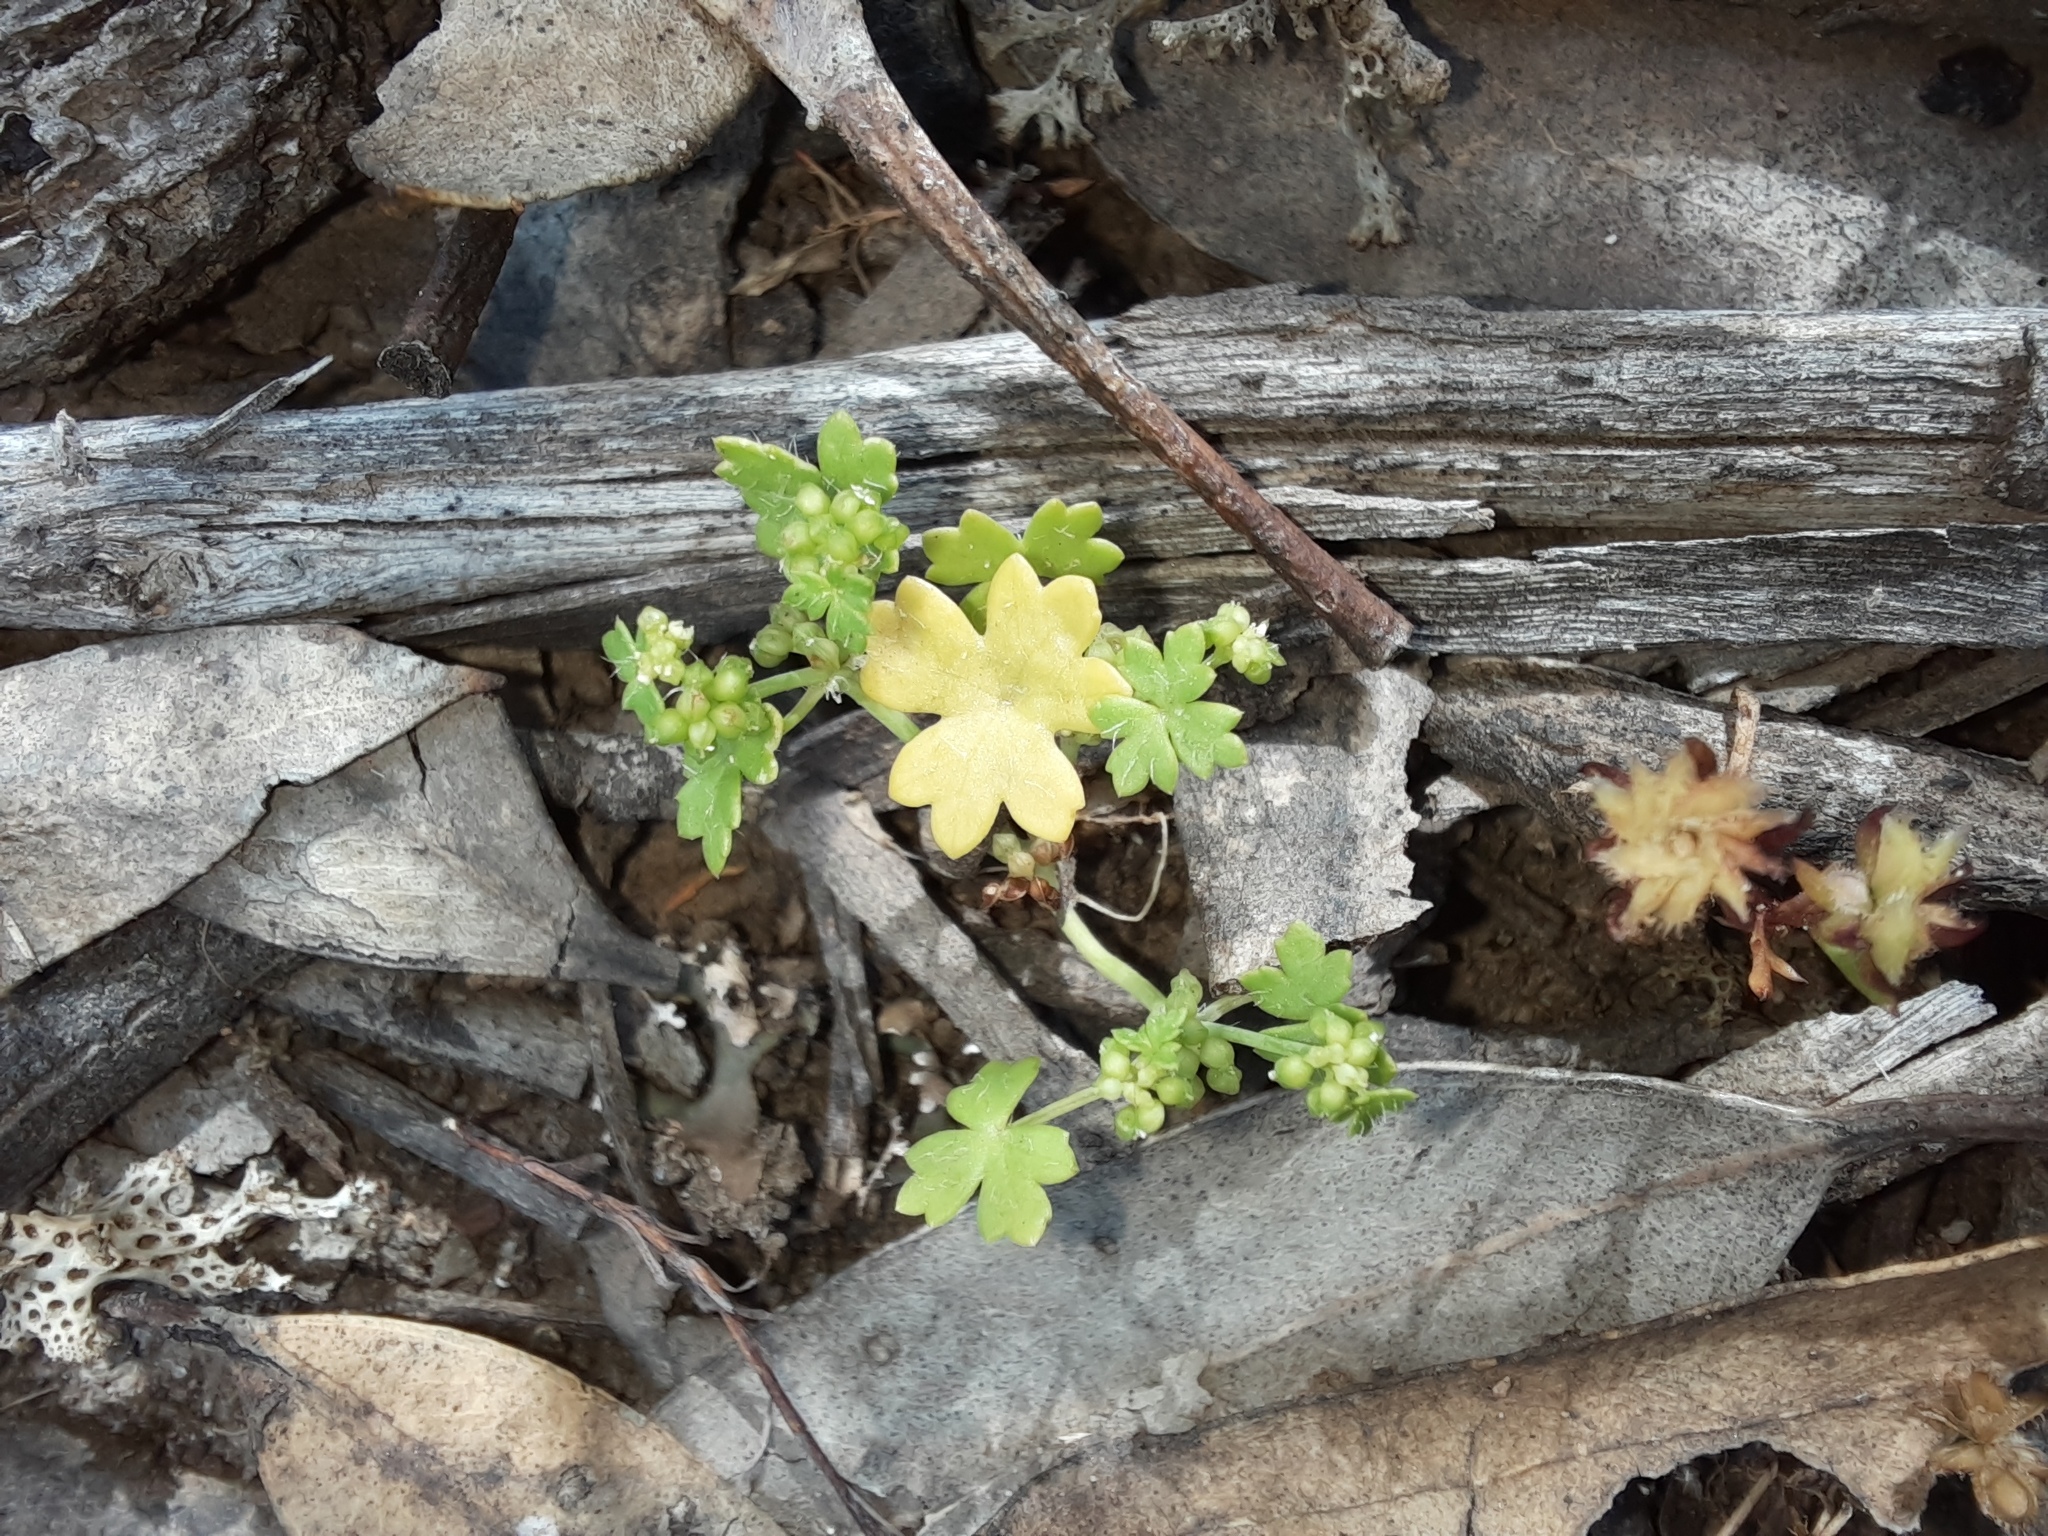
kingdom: Plantae
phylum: Tracheophyta
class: Magnoliopsida
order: Apiales
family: Araliaceae
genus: Hydrocotyle
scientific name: Hydrocotyle foveolata
